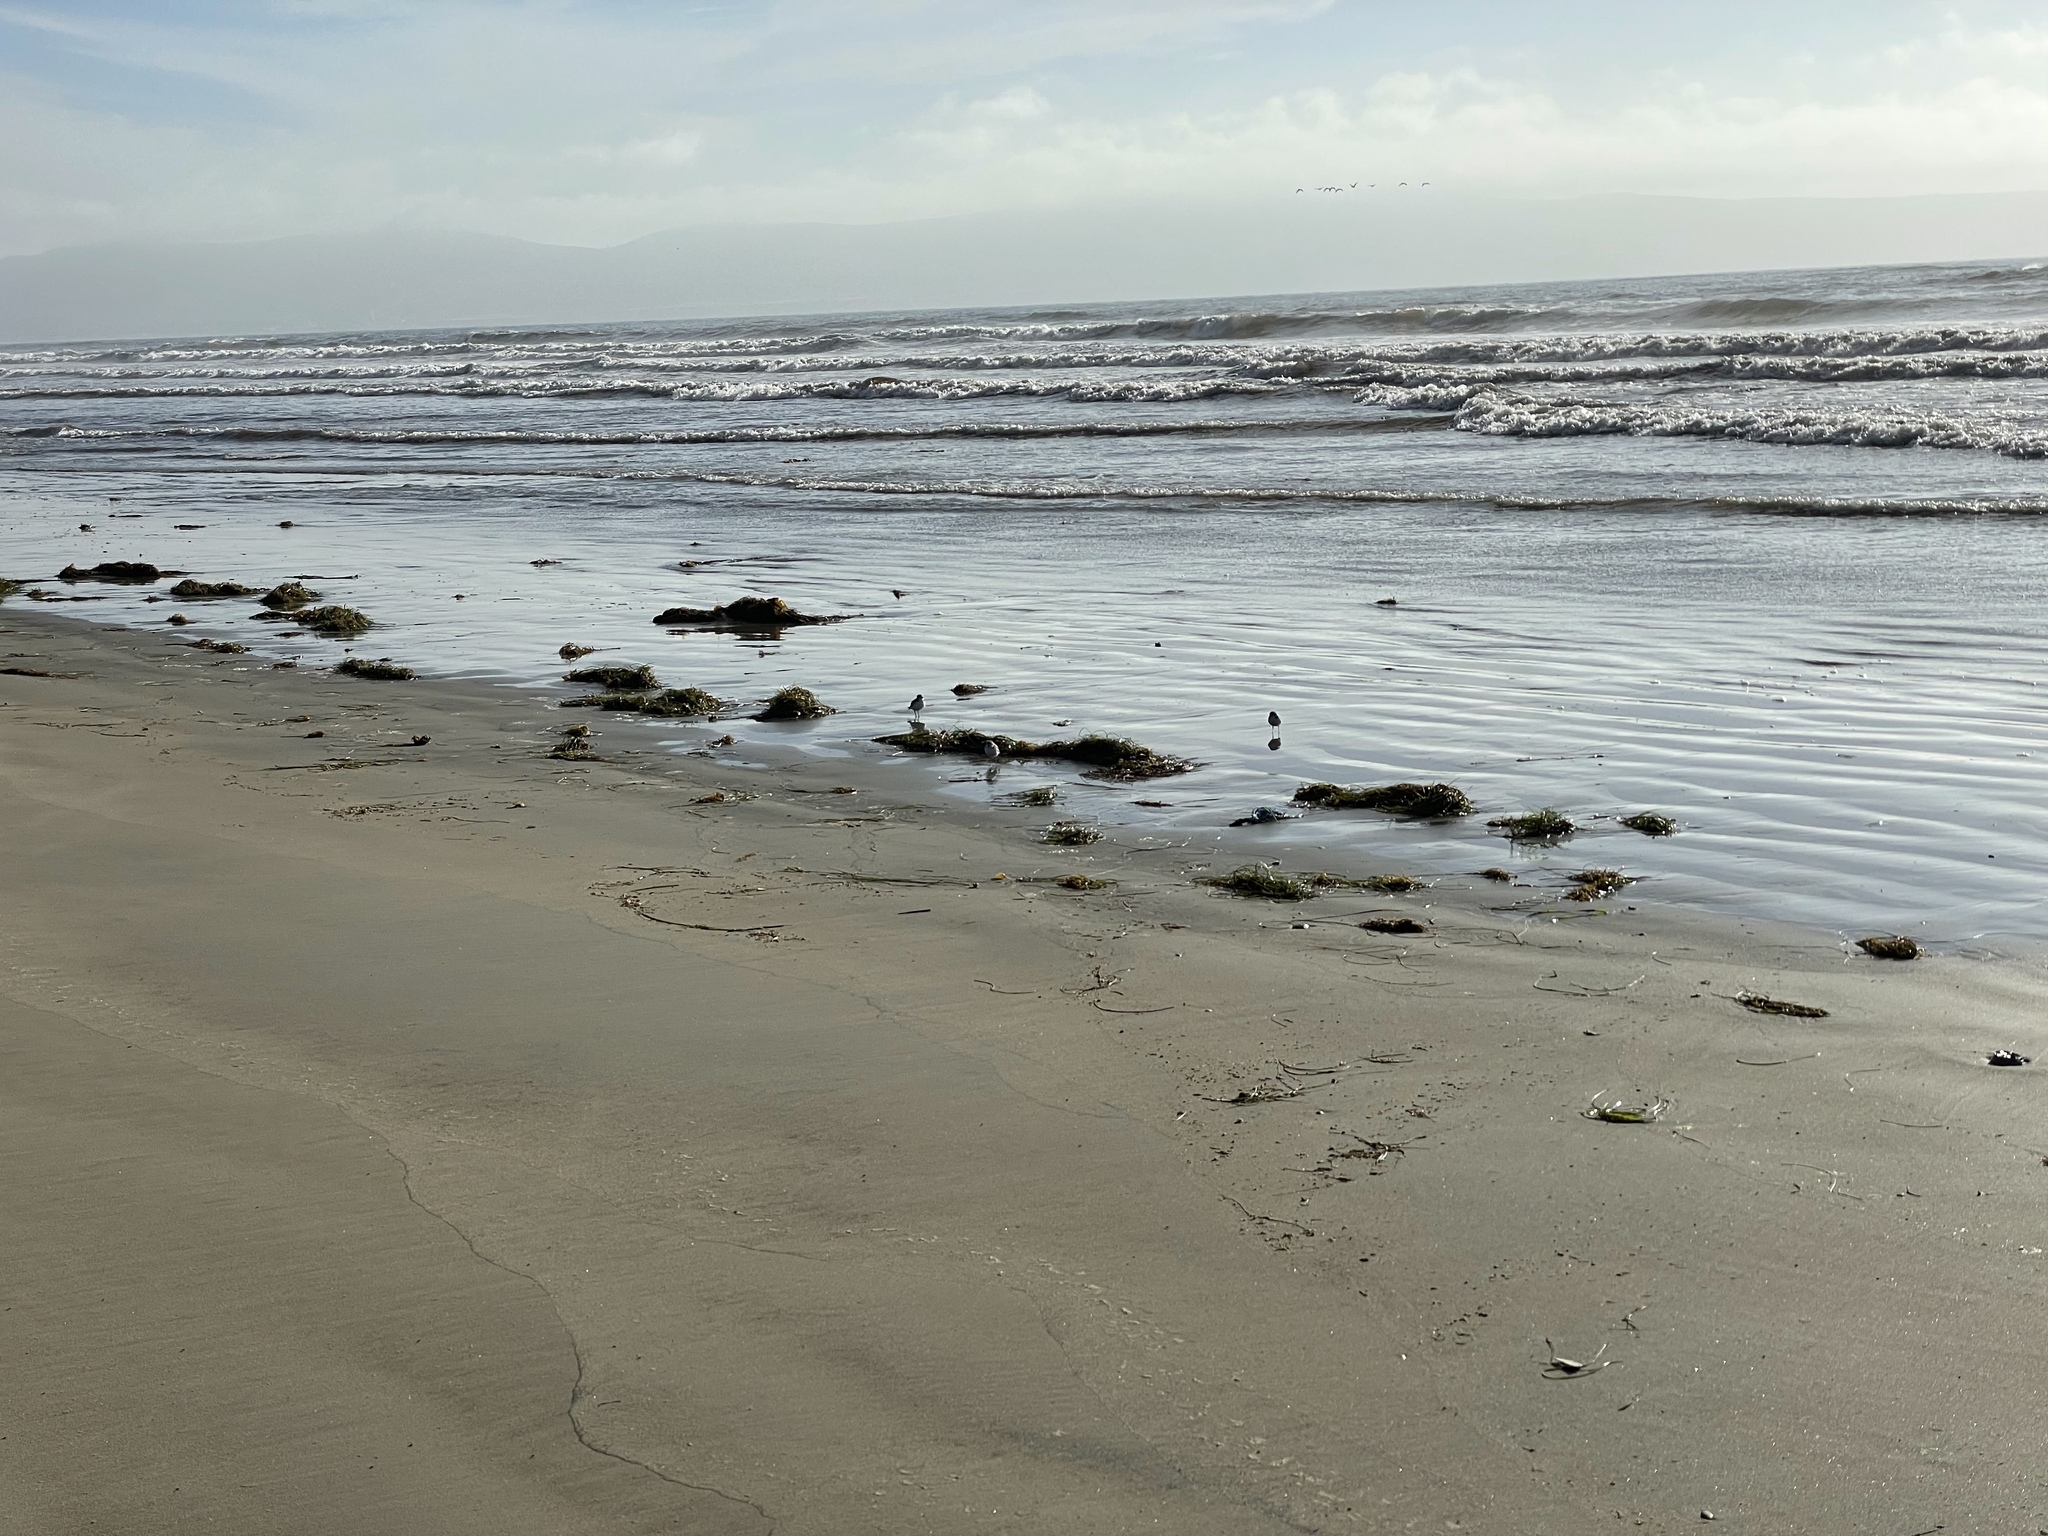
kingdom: Animalia
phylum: Chordata
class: Aves
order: Charadriiformes
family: Charadriidae
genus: Anarhynchus
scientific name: Anarhynchus
